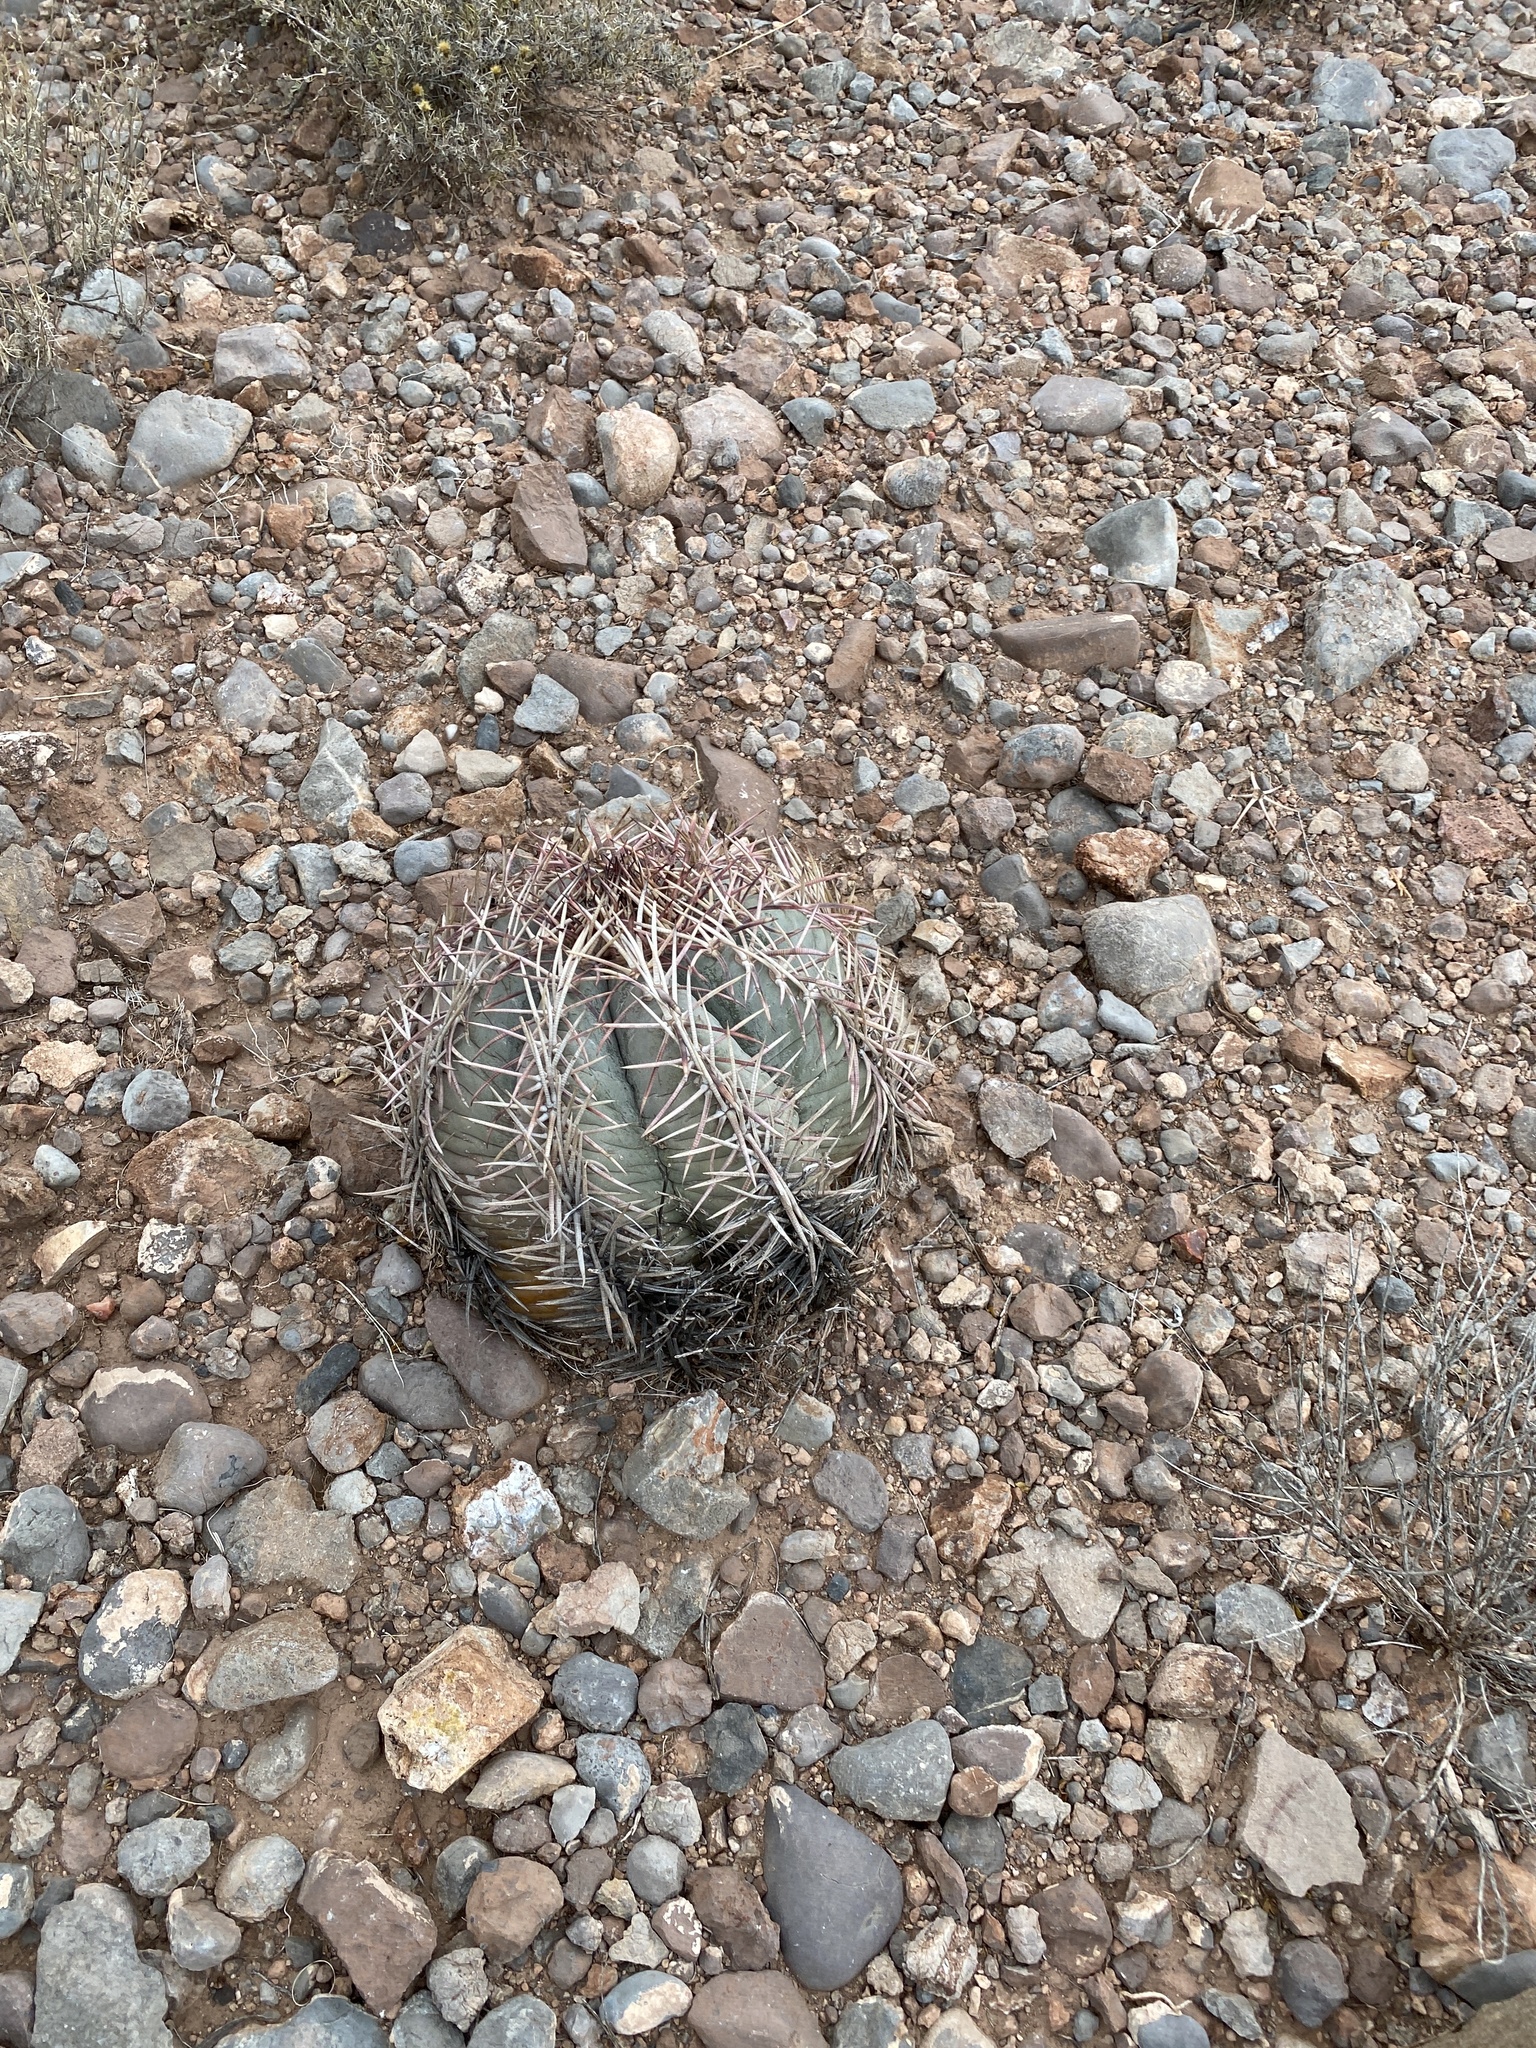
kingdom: Plantae
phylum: Tracheophyta
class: Magnoliopsida
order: Caryophyllales
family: Cactaceae
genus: Echinocactus
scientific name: Echinocactus horizonthalonius
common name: Devilshead
